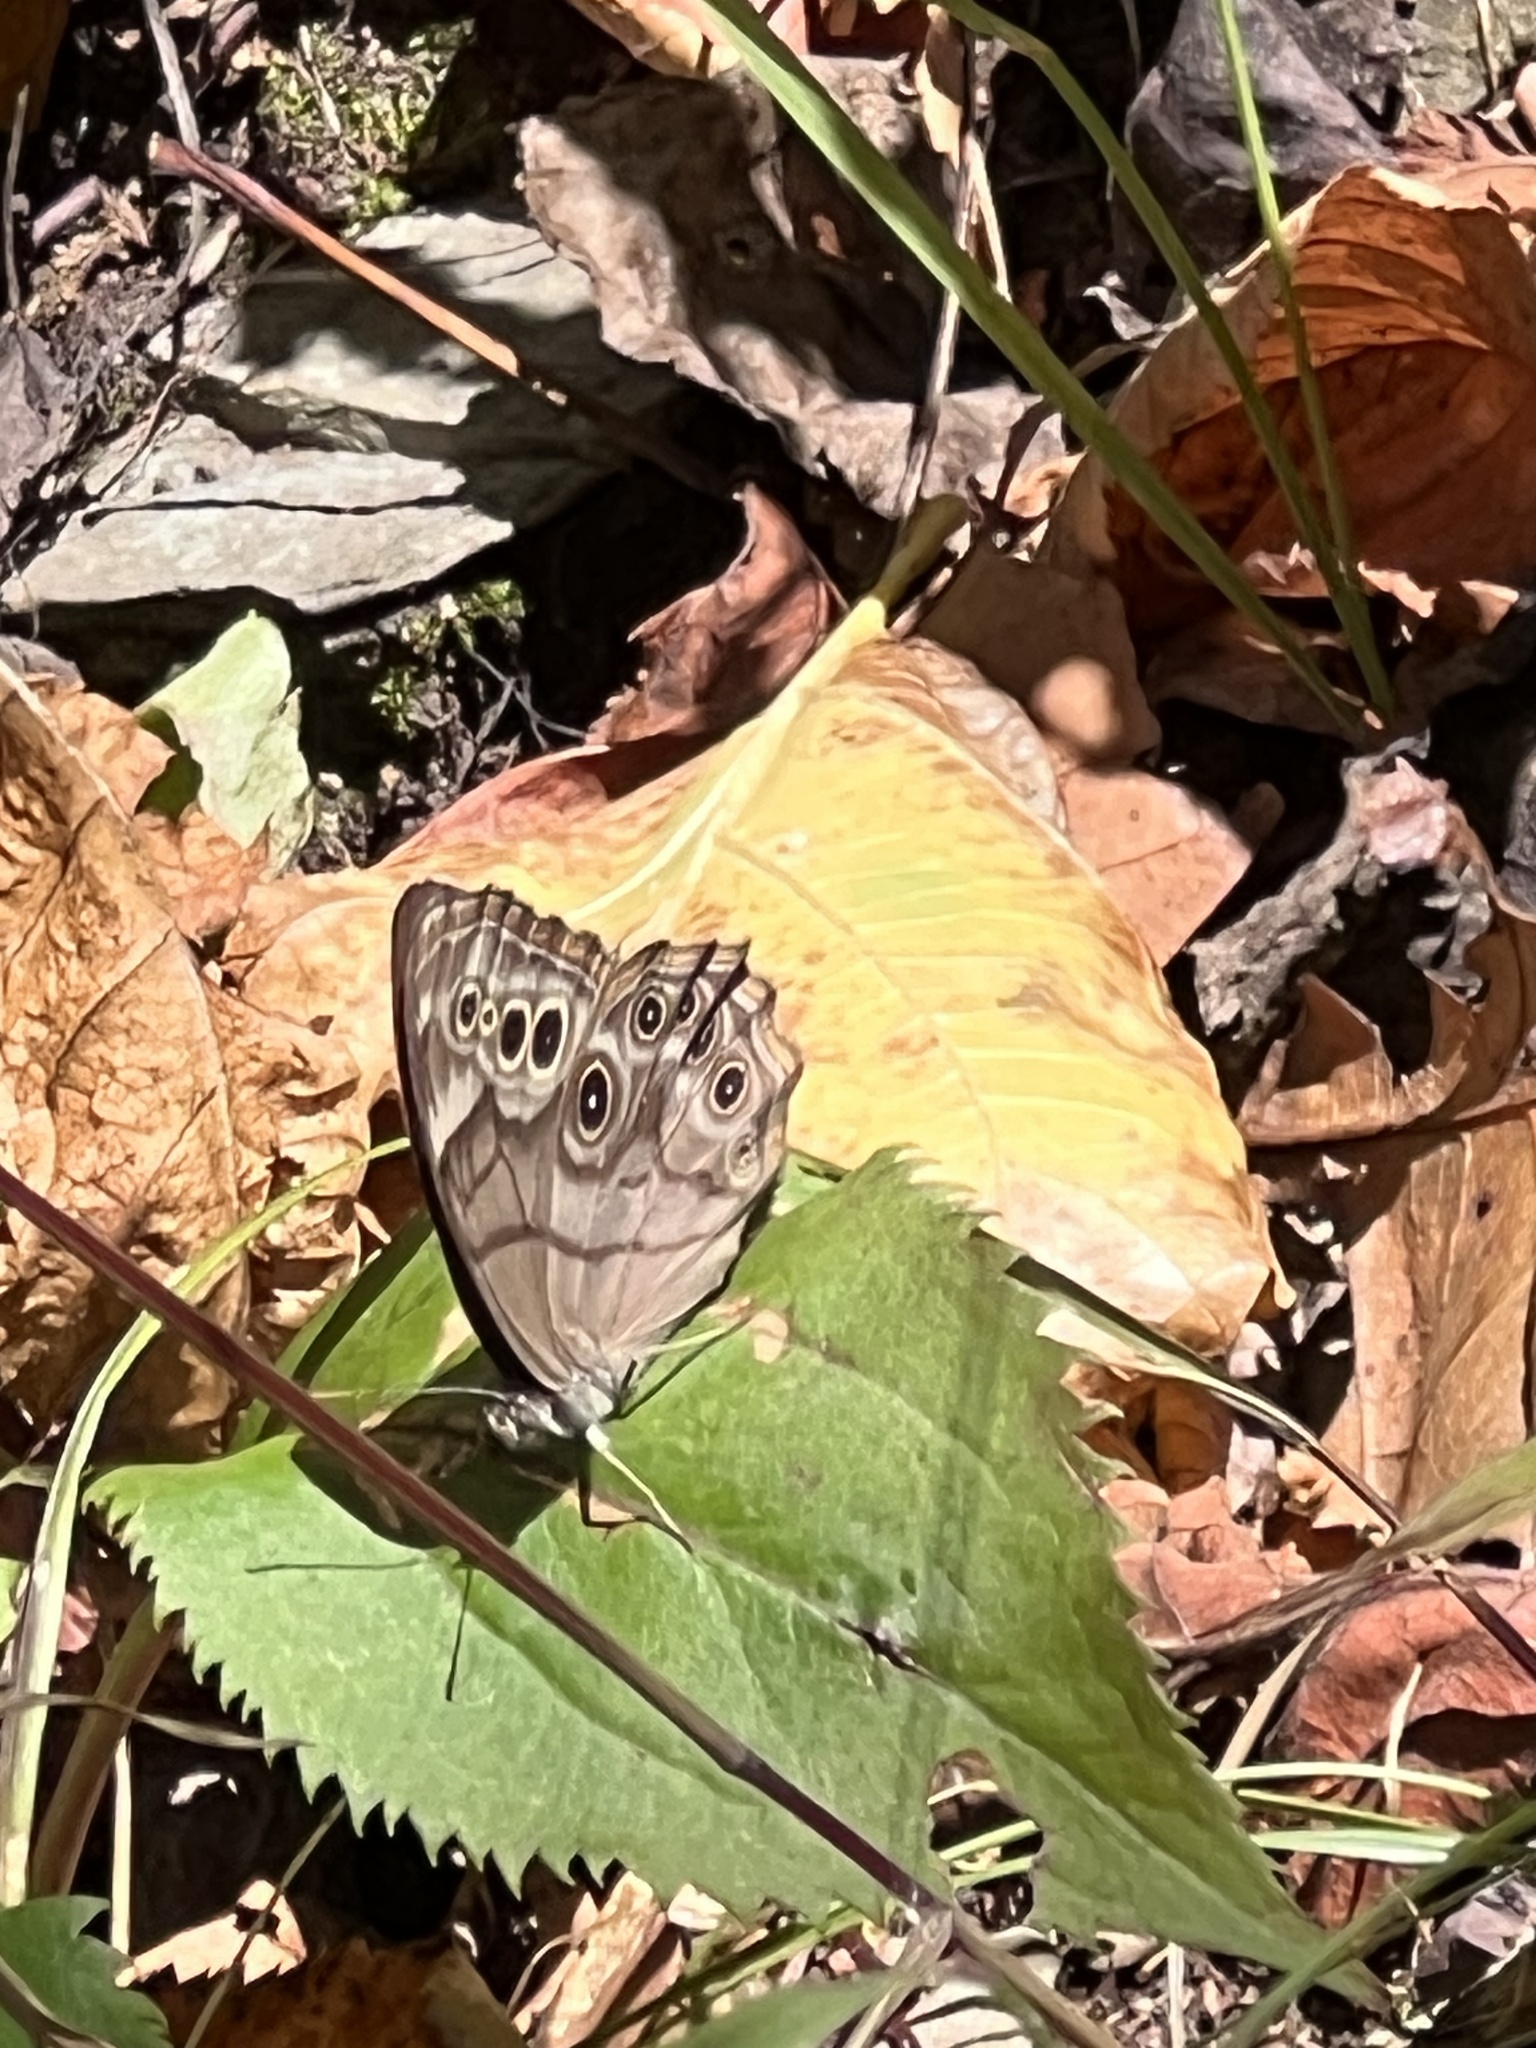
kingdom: Animalia
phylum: Arthropoda
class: Insecta
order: Lepidoptera
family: Nymphalidae
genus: Lethe
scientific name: Lethe anthedon
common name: Northern pearly-eye
